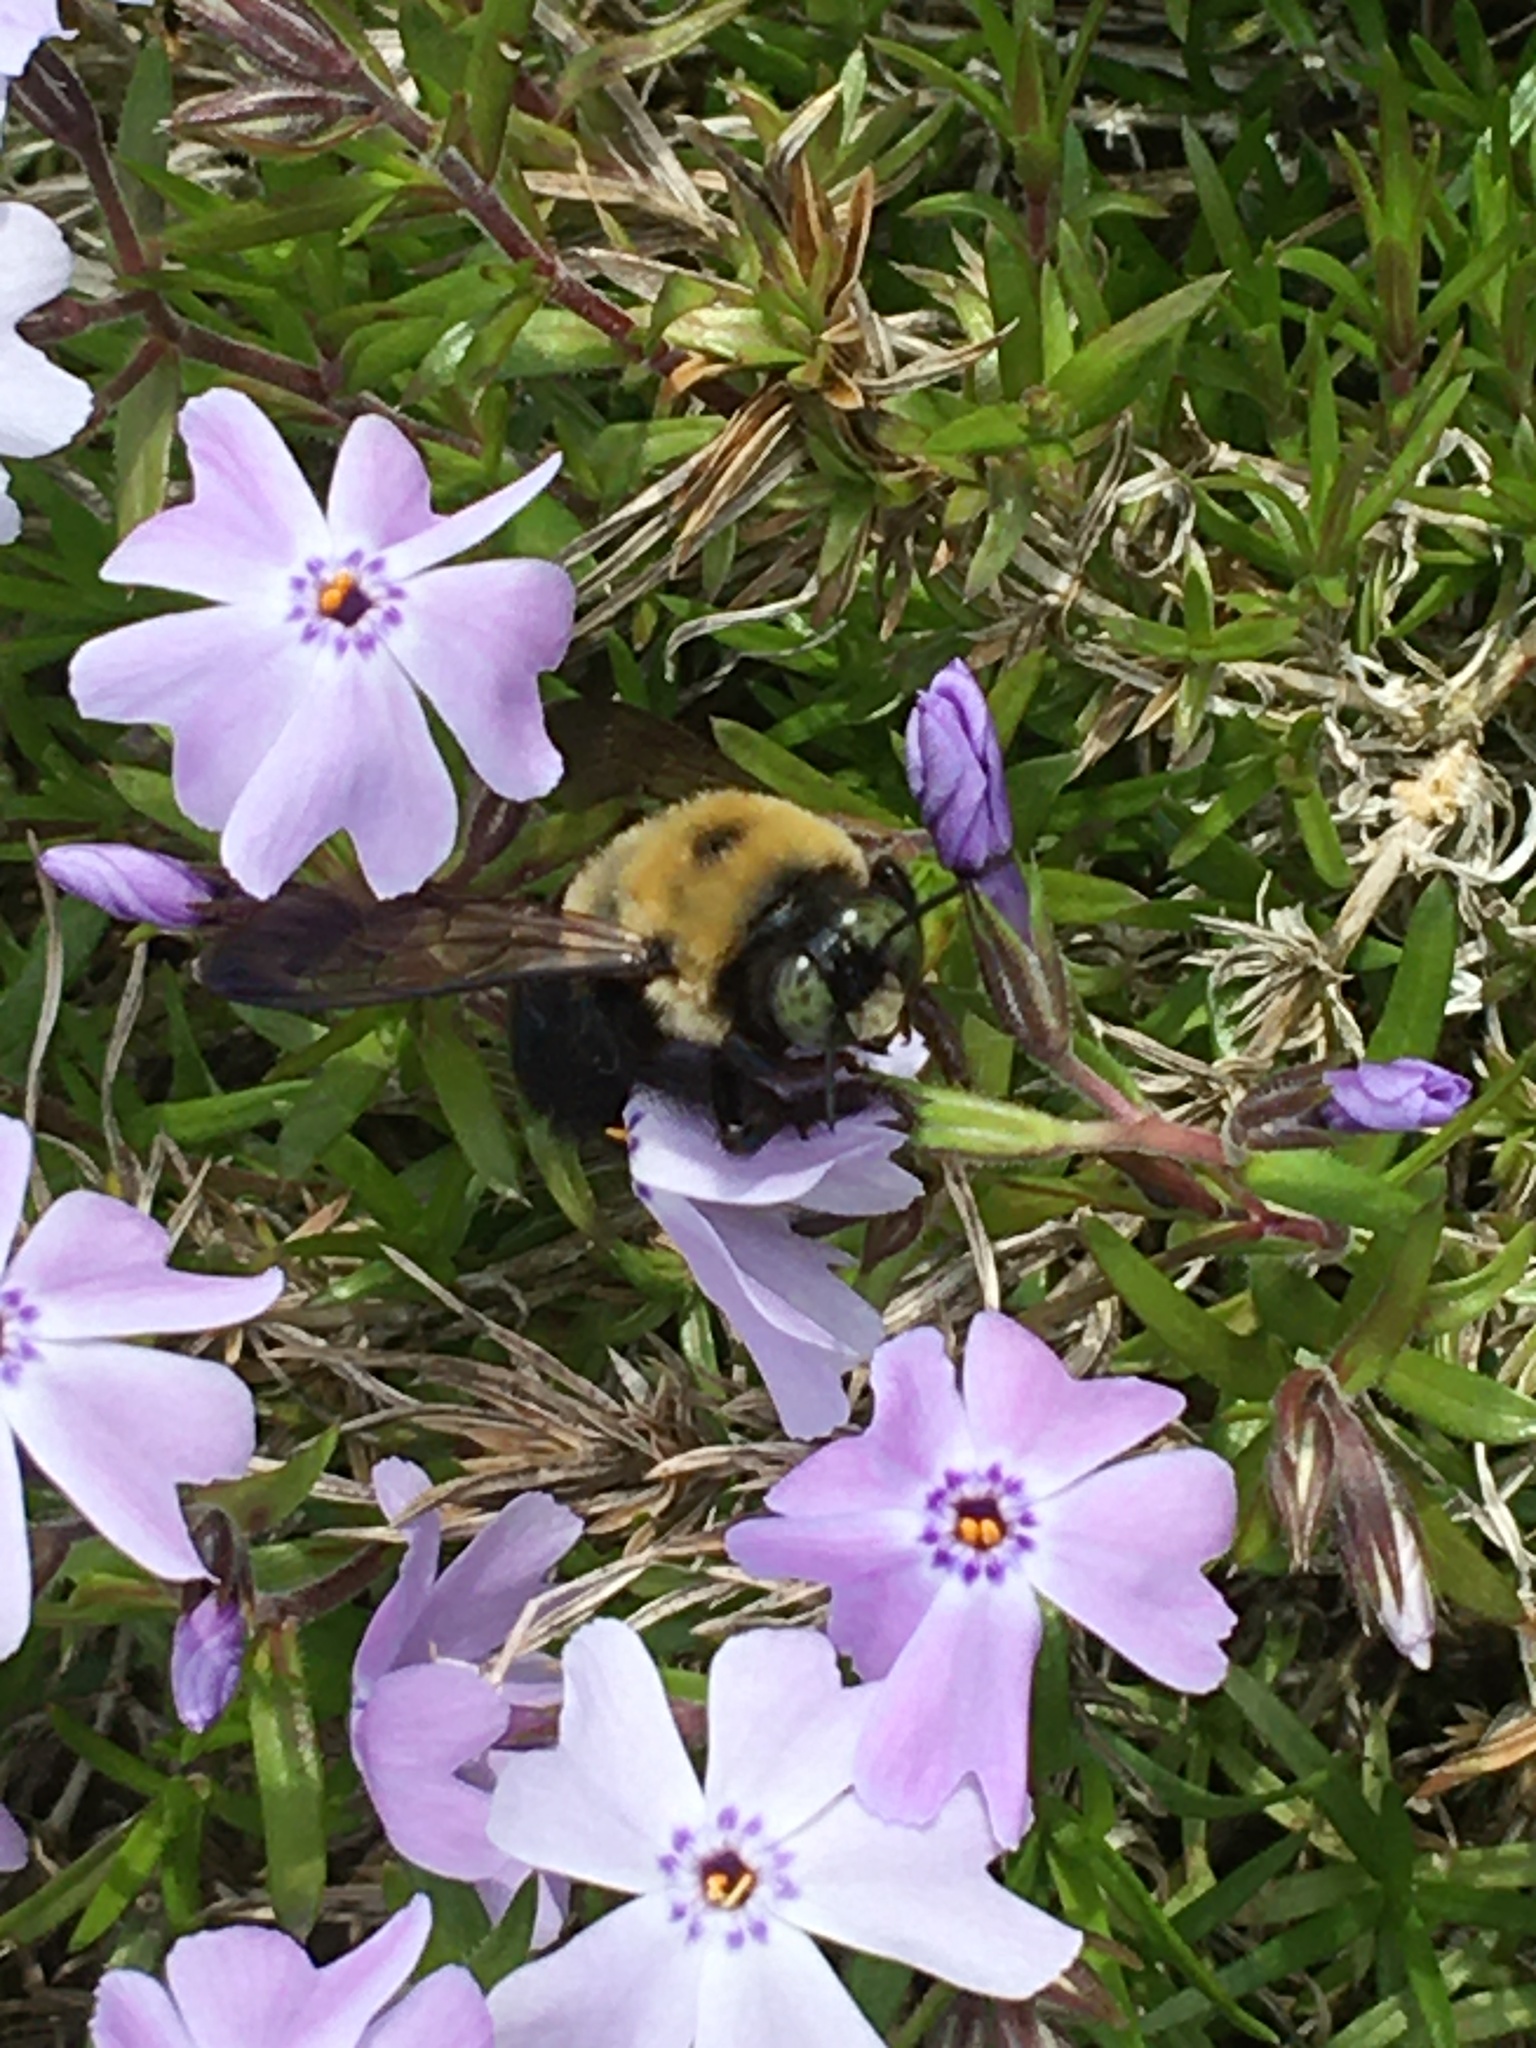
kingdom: Animalia
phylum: Arthropoda
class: Insecta
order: Hymenoptera
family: Apidae
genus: Xylocopa
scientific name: Xylocopa virginica
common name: Carpenter bee
